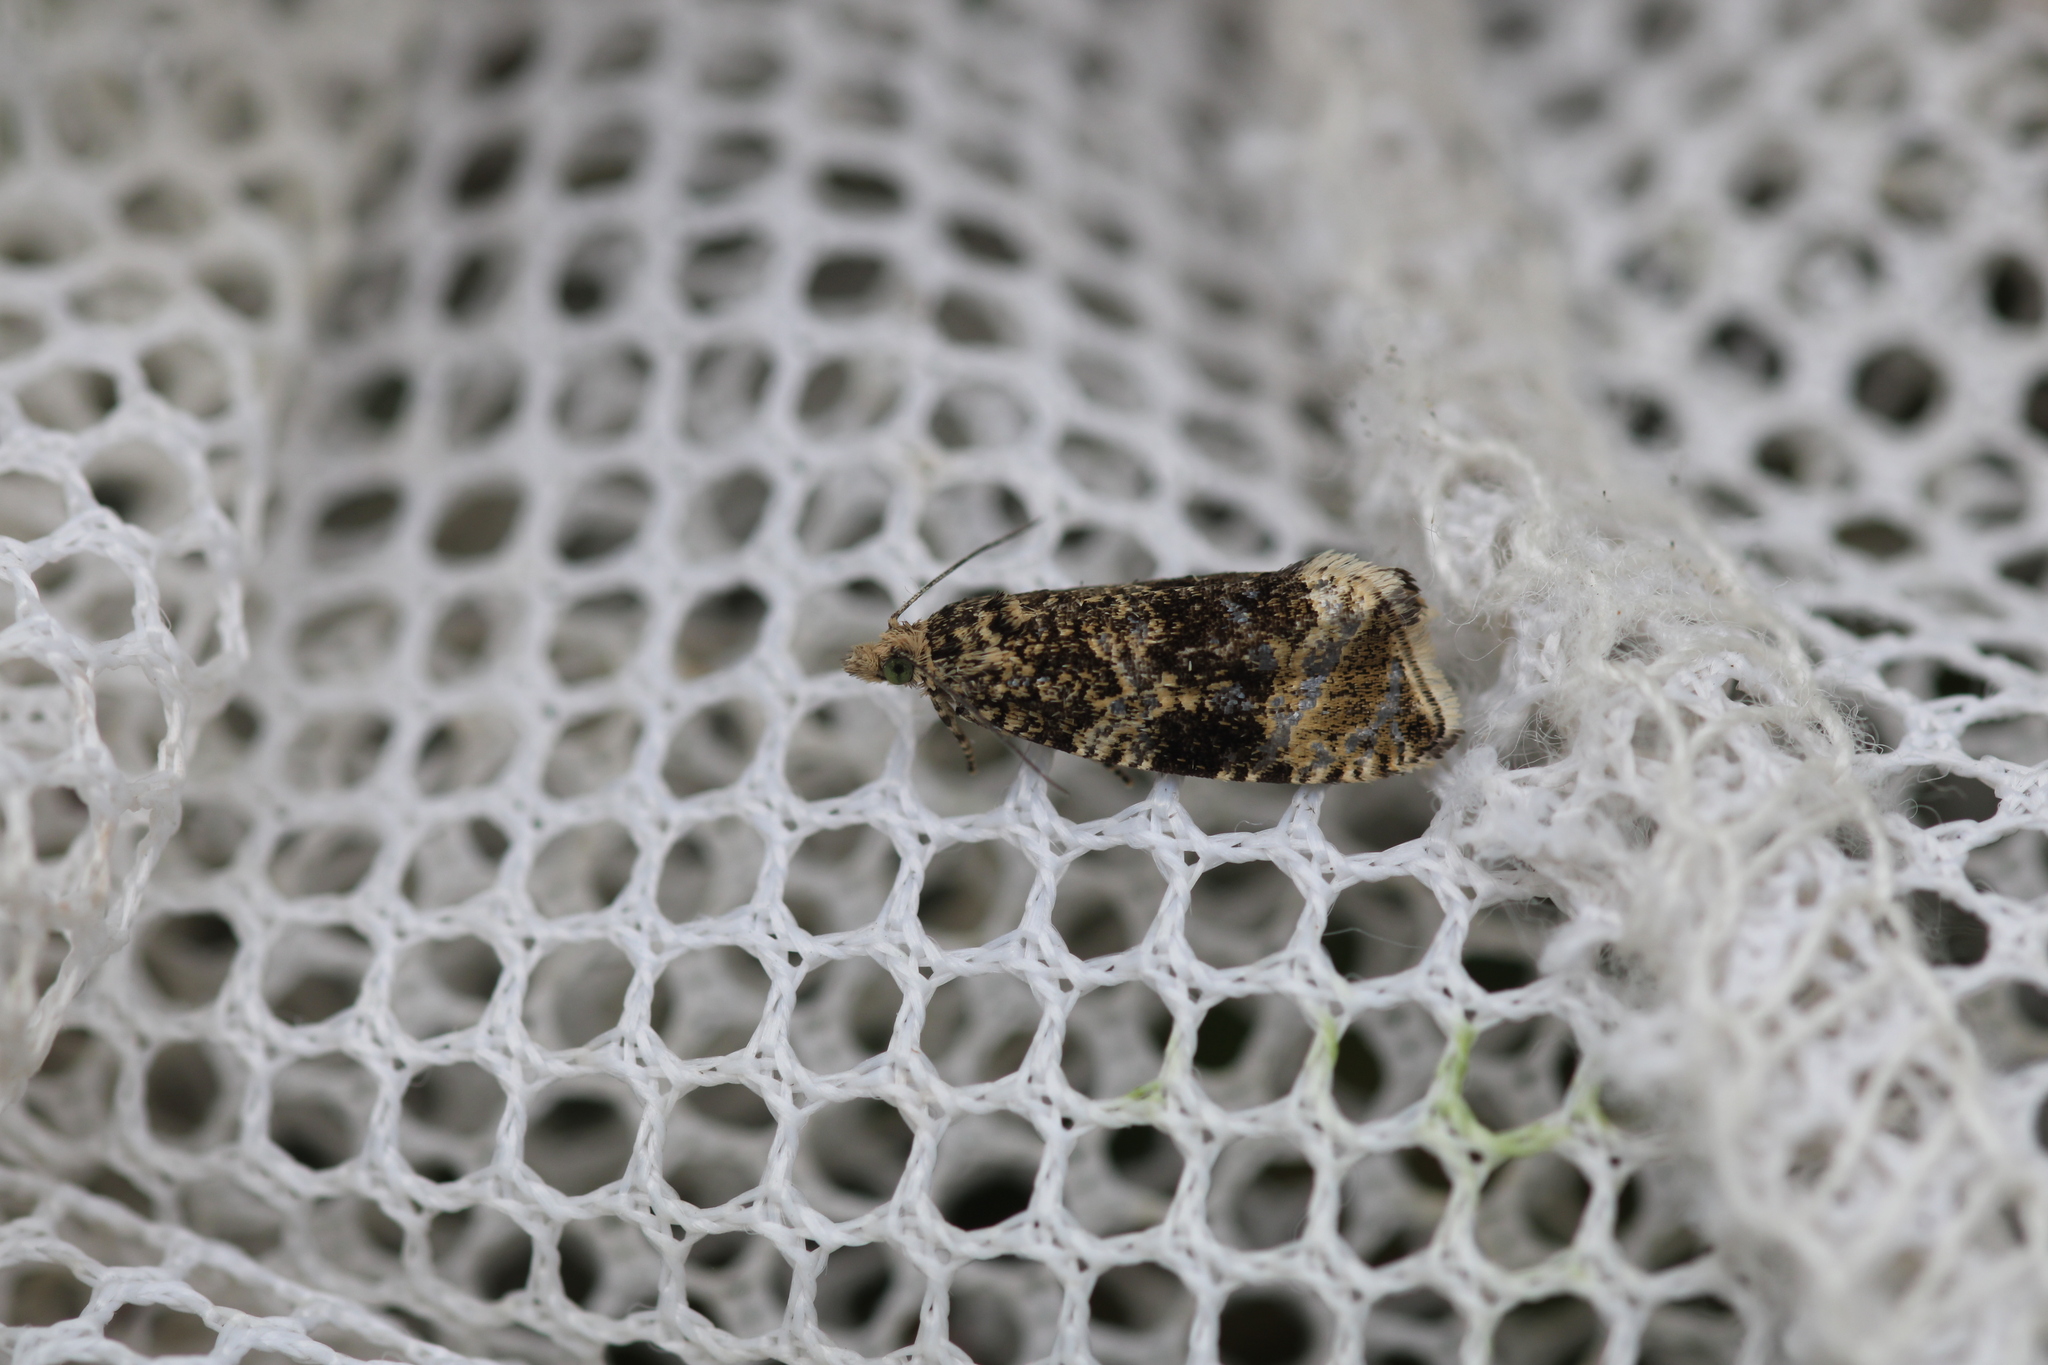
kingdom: Animalia
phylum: Arthropoda
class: Insecta
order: Lepidoptera
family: Tortricidae
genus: Syricoris
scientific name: Syricoris lacunana
